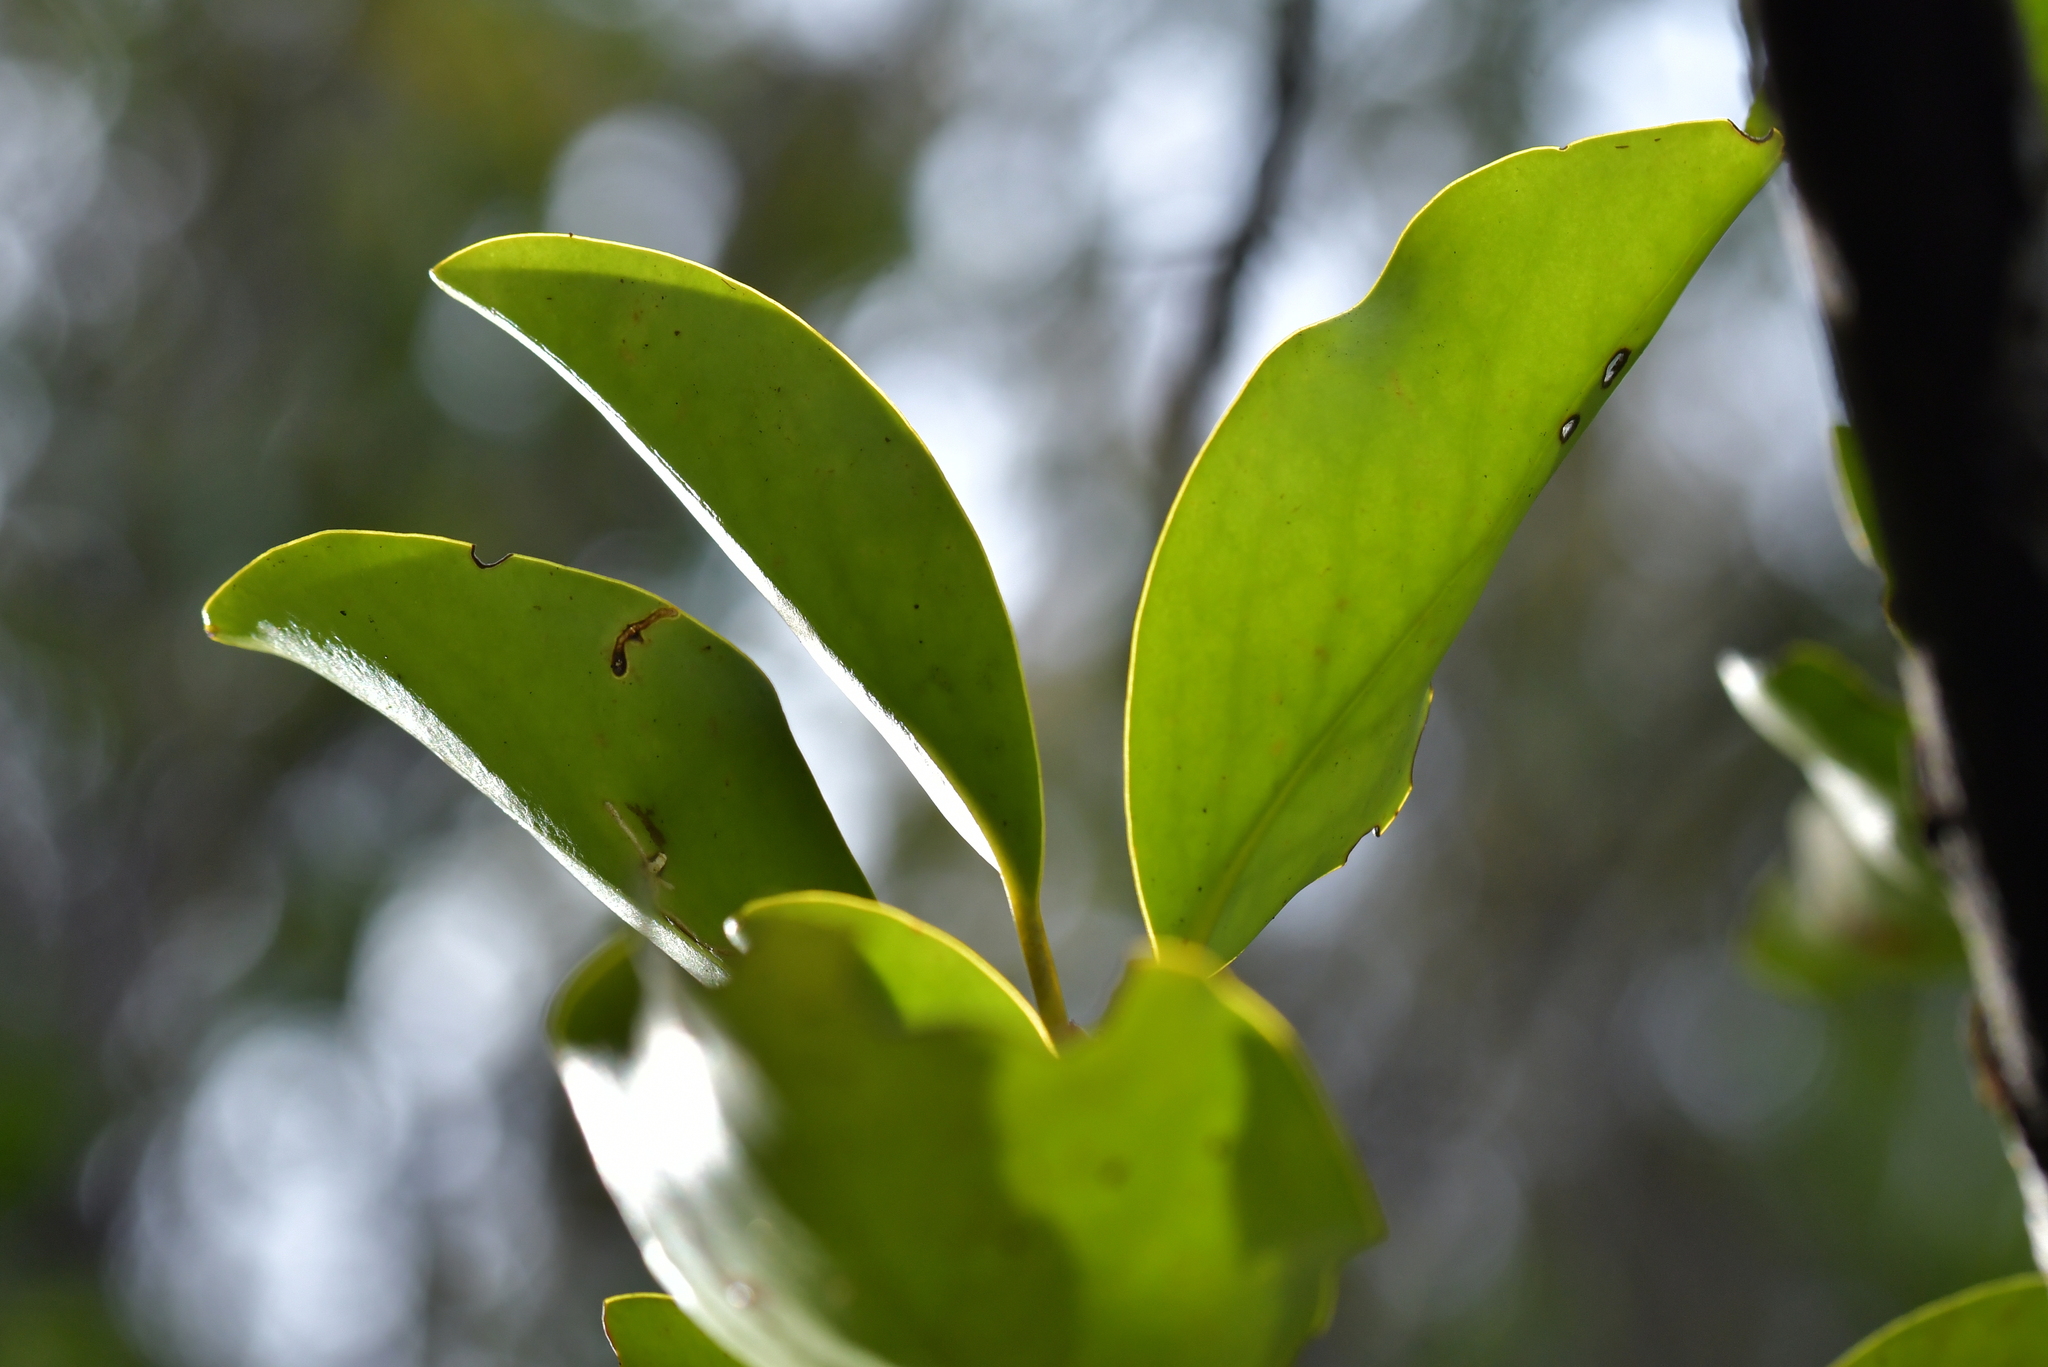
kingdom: Plantae
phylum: Tracheophyta
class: Magnoliopsida
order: Apiales
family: Griseliniaceae
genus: Griselinia
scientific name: Griselinia littoralis
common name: New zealand broadleaf
